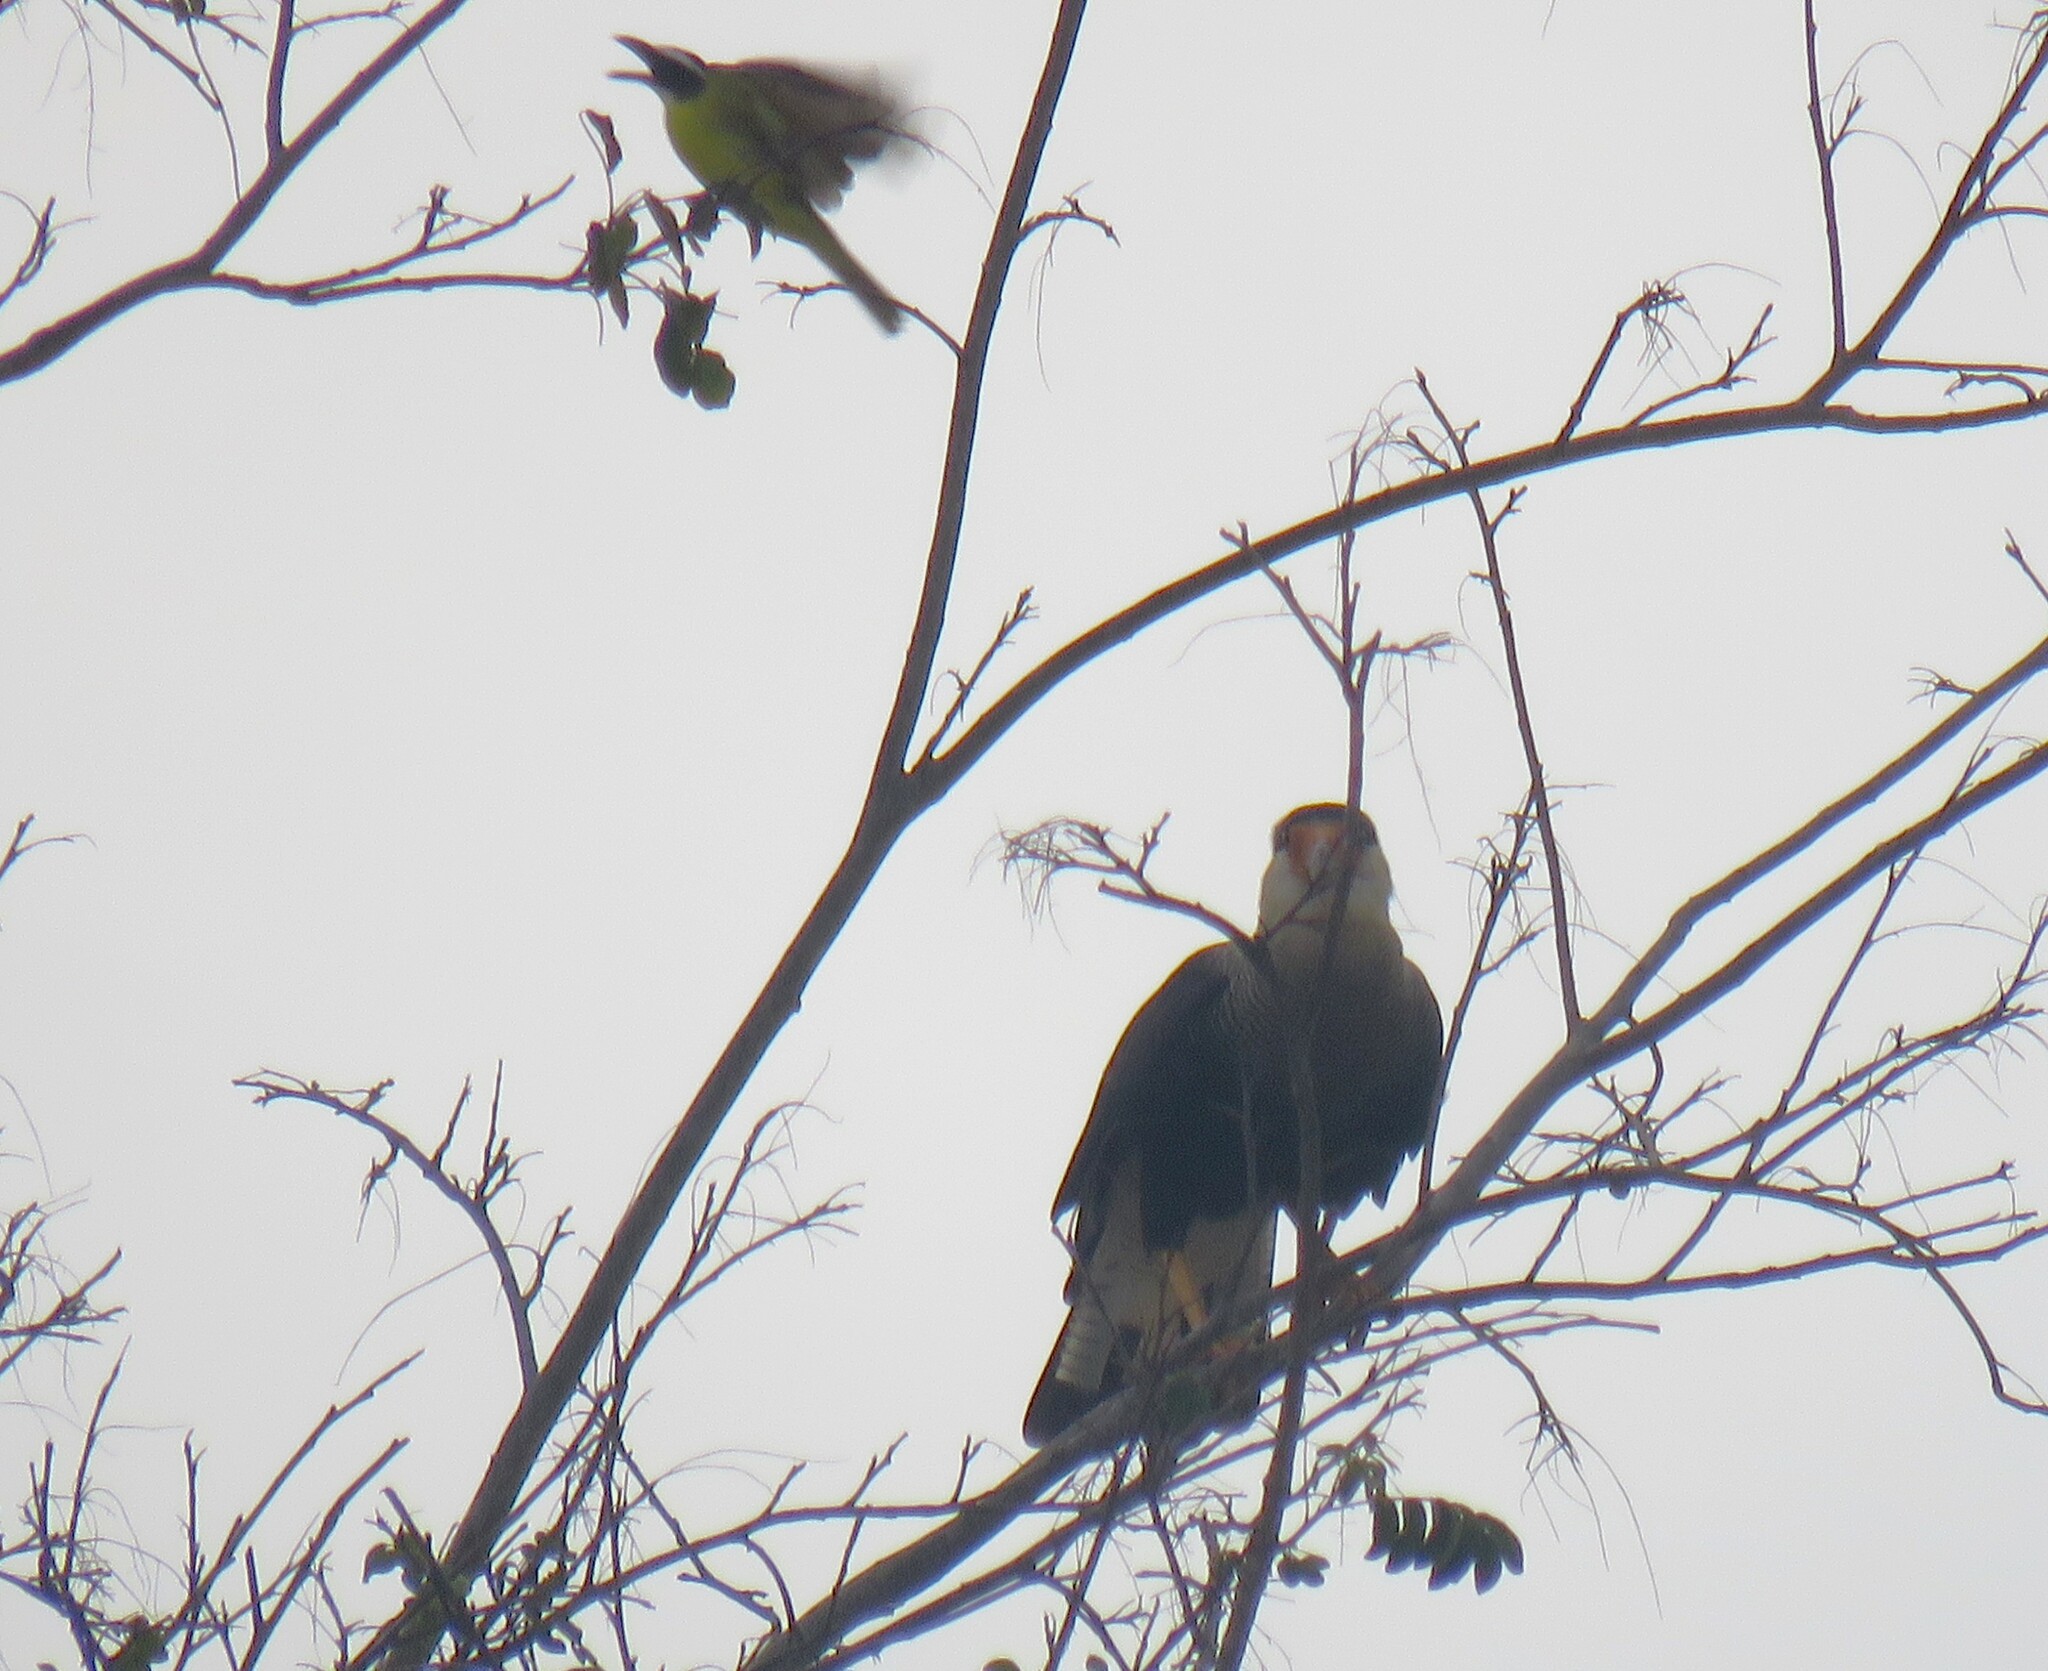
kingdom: Animalia
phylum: Chordata
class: Aves
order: Falconiformes
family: Falconidae
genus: Caracara
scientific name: Caracara plancus
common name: Southern caracara
